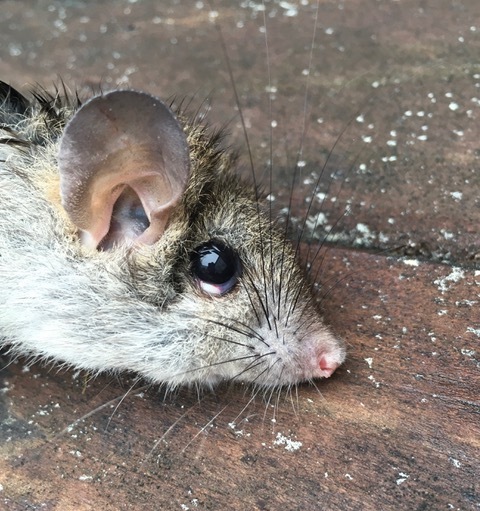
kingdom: Animalia
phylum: Chordata
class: Mammalia
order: Rodentia
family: Muridae
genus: Rattus
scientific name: Rattus rattus
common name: Black rat
